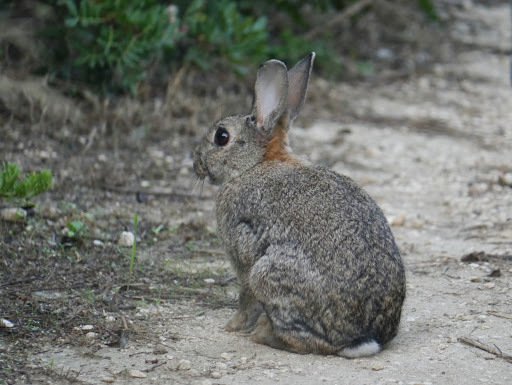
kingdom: Animalia
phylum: Chordata
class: Mammalia
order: Lagomorpha
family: Leporidae
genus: Oryctolagus
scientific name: Oryctolagus cuniculus
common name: European rabbit
